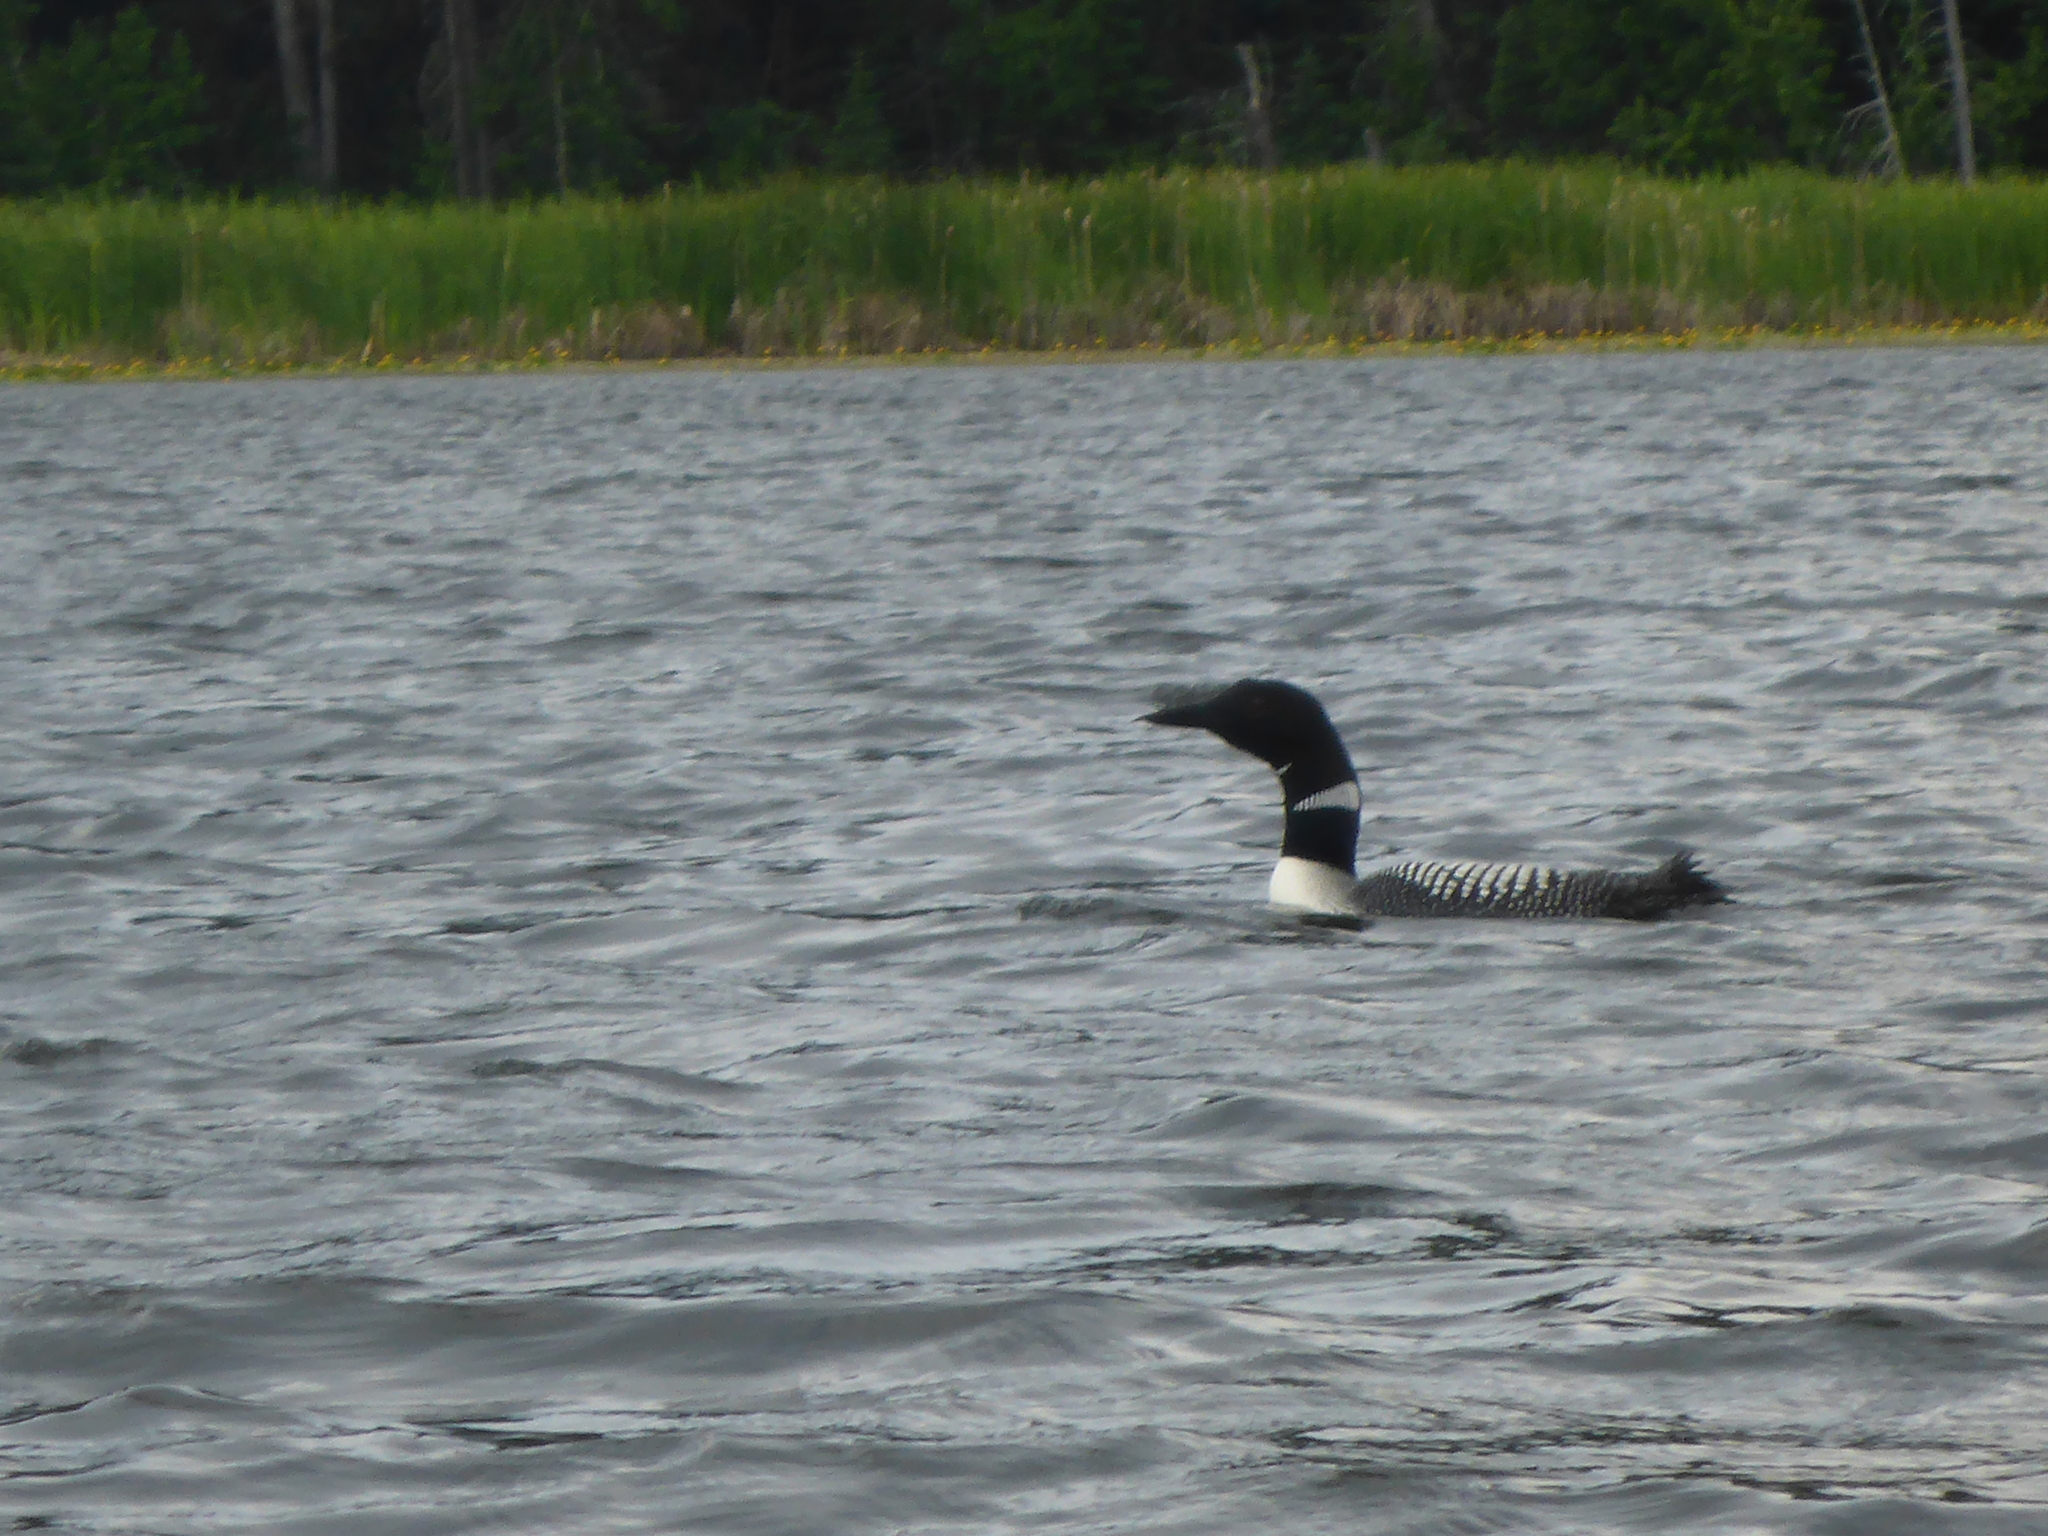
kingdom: Animalia
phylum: Chordata
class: Aves
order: Gaviiformes
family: Gaviidae
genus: Gavia
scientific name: Gavia immer
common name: Common loon
